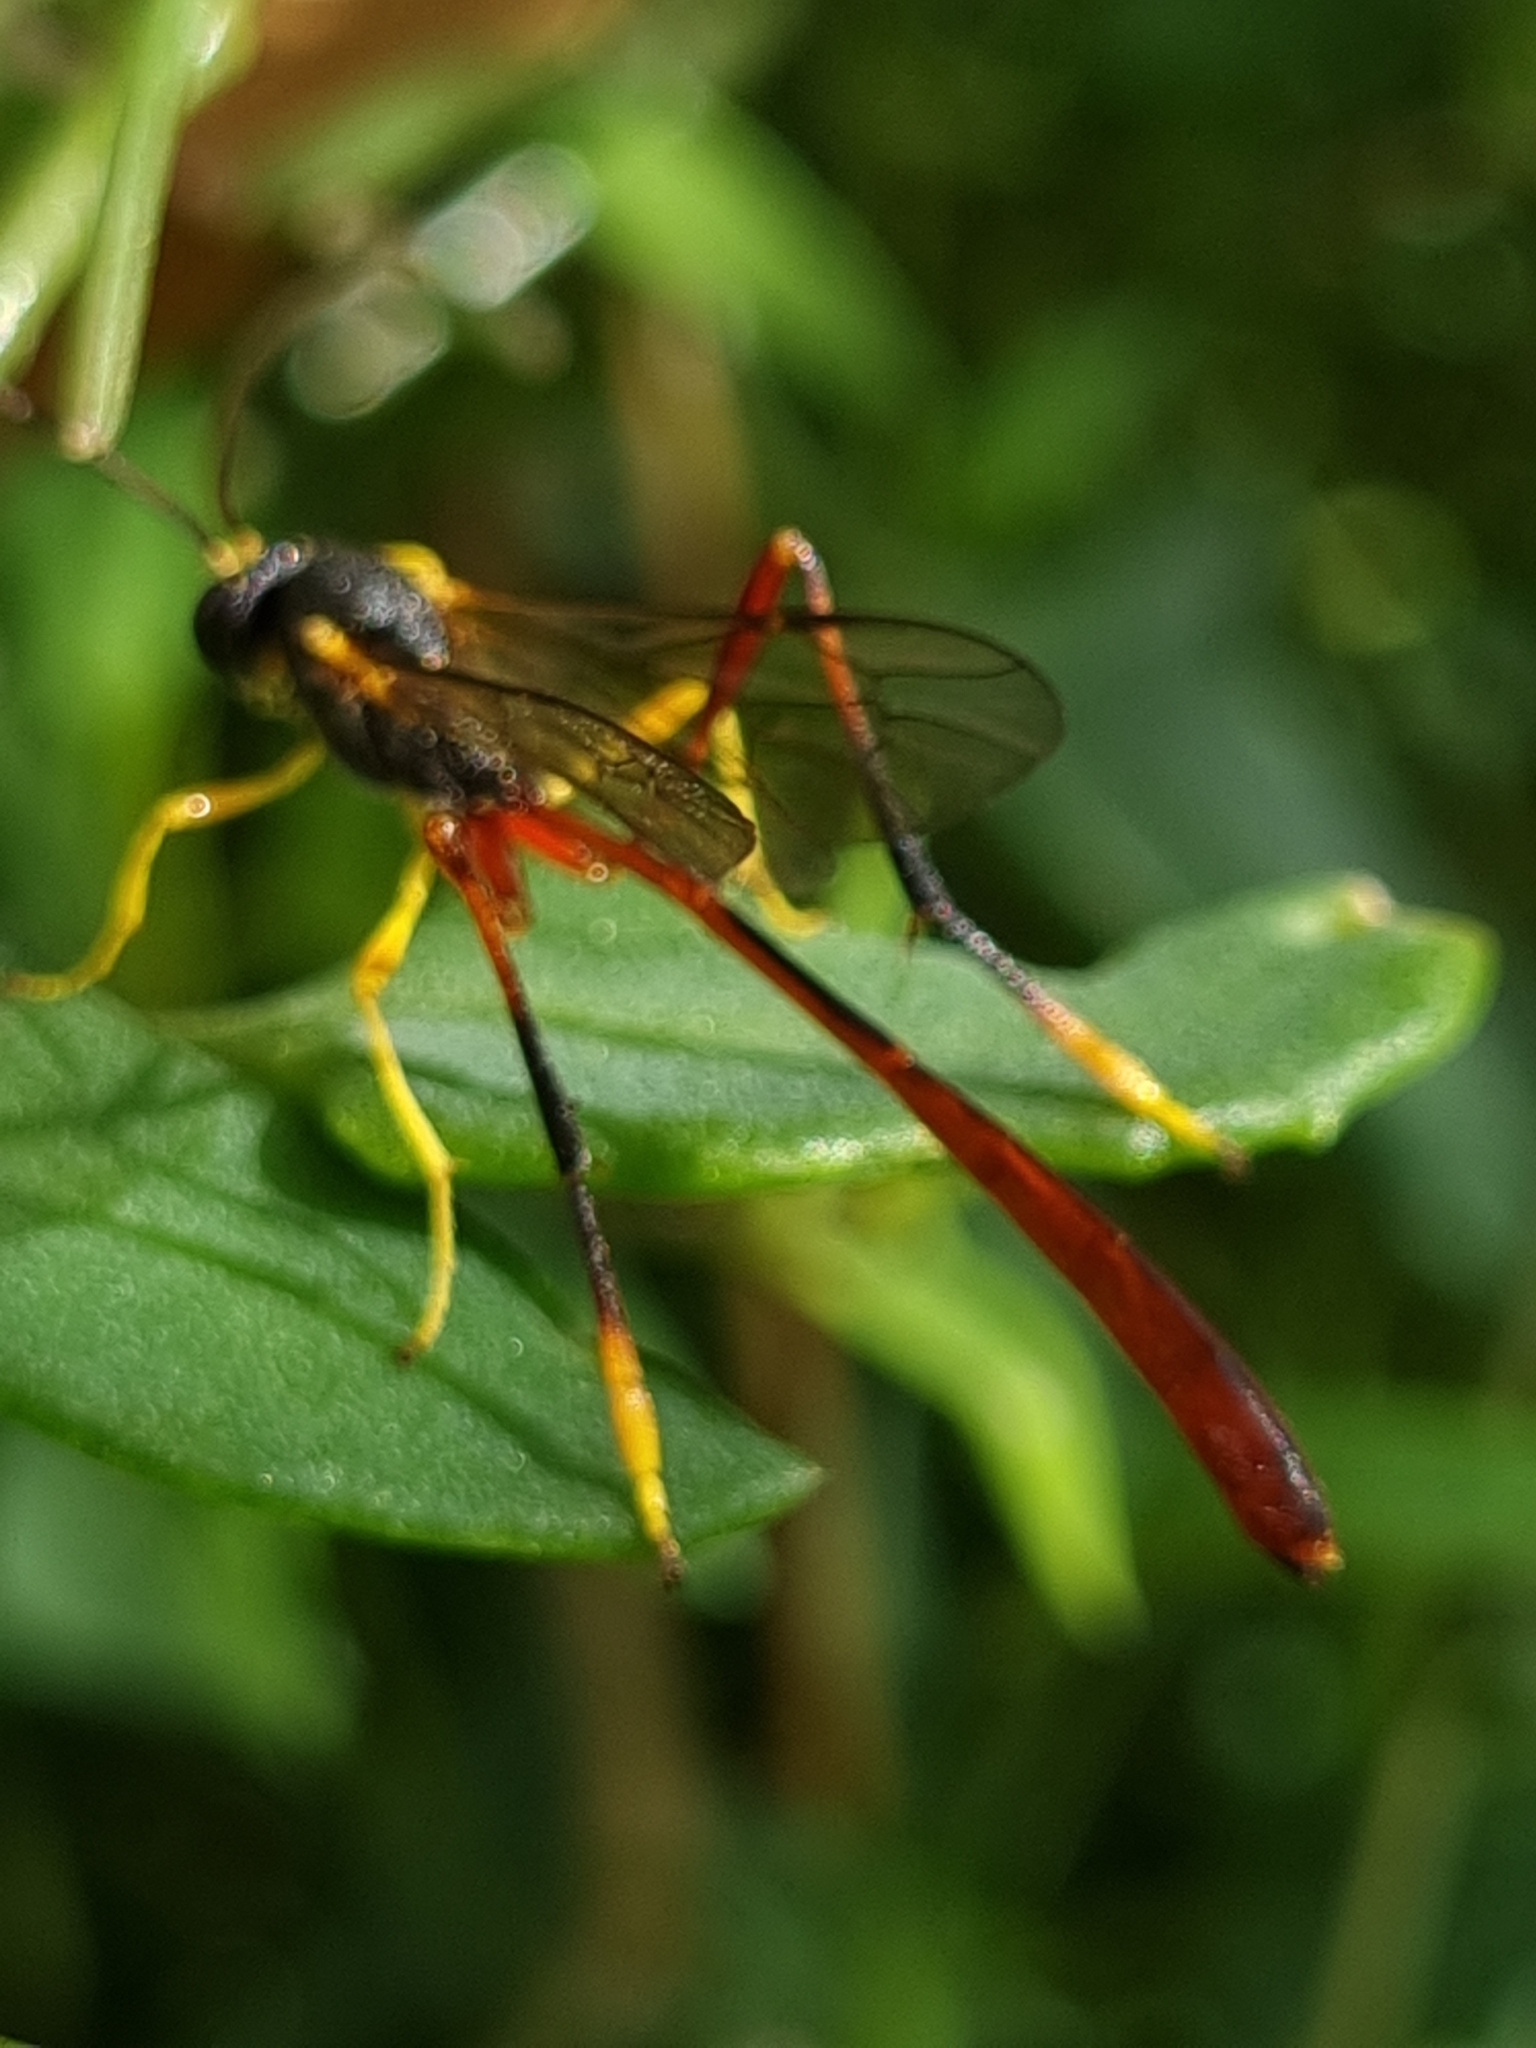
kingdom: Animalia
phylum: Arthropoda
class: Insecta
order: Hymenoptera
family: Ichneumonidae
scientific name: Ichneumonidae
